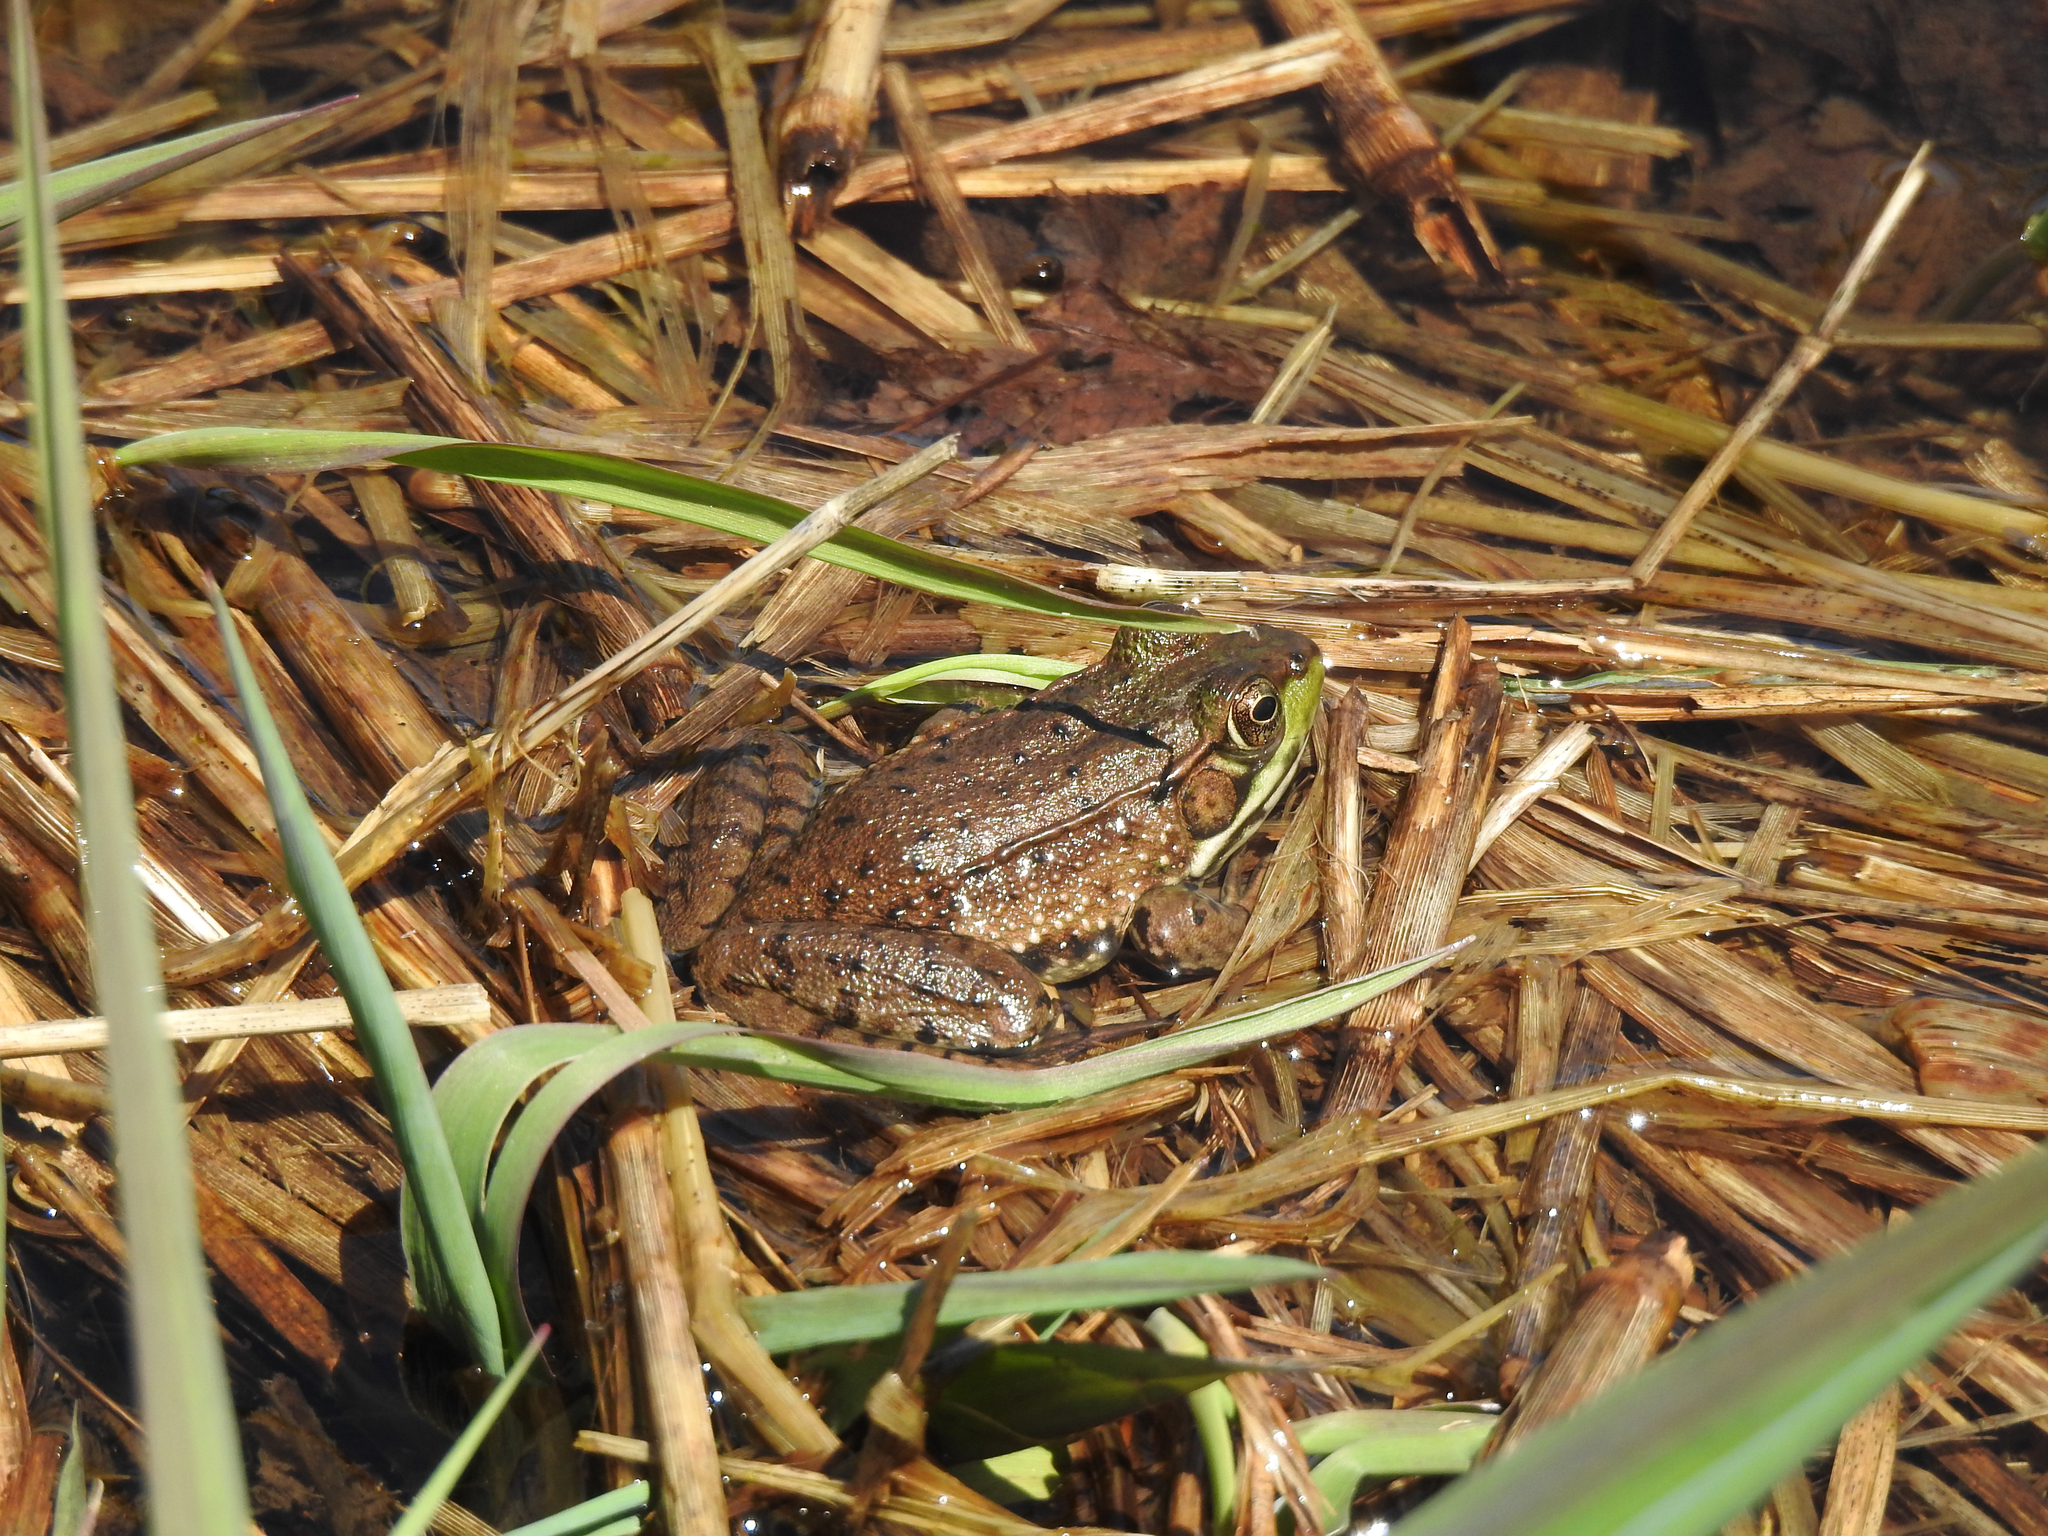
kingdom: Animalia
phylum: Chordata
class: Amphibia
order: Anura
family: Ranidae
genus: Lithobates
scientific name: Lithobates clamitans
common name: Green frog
